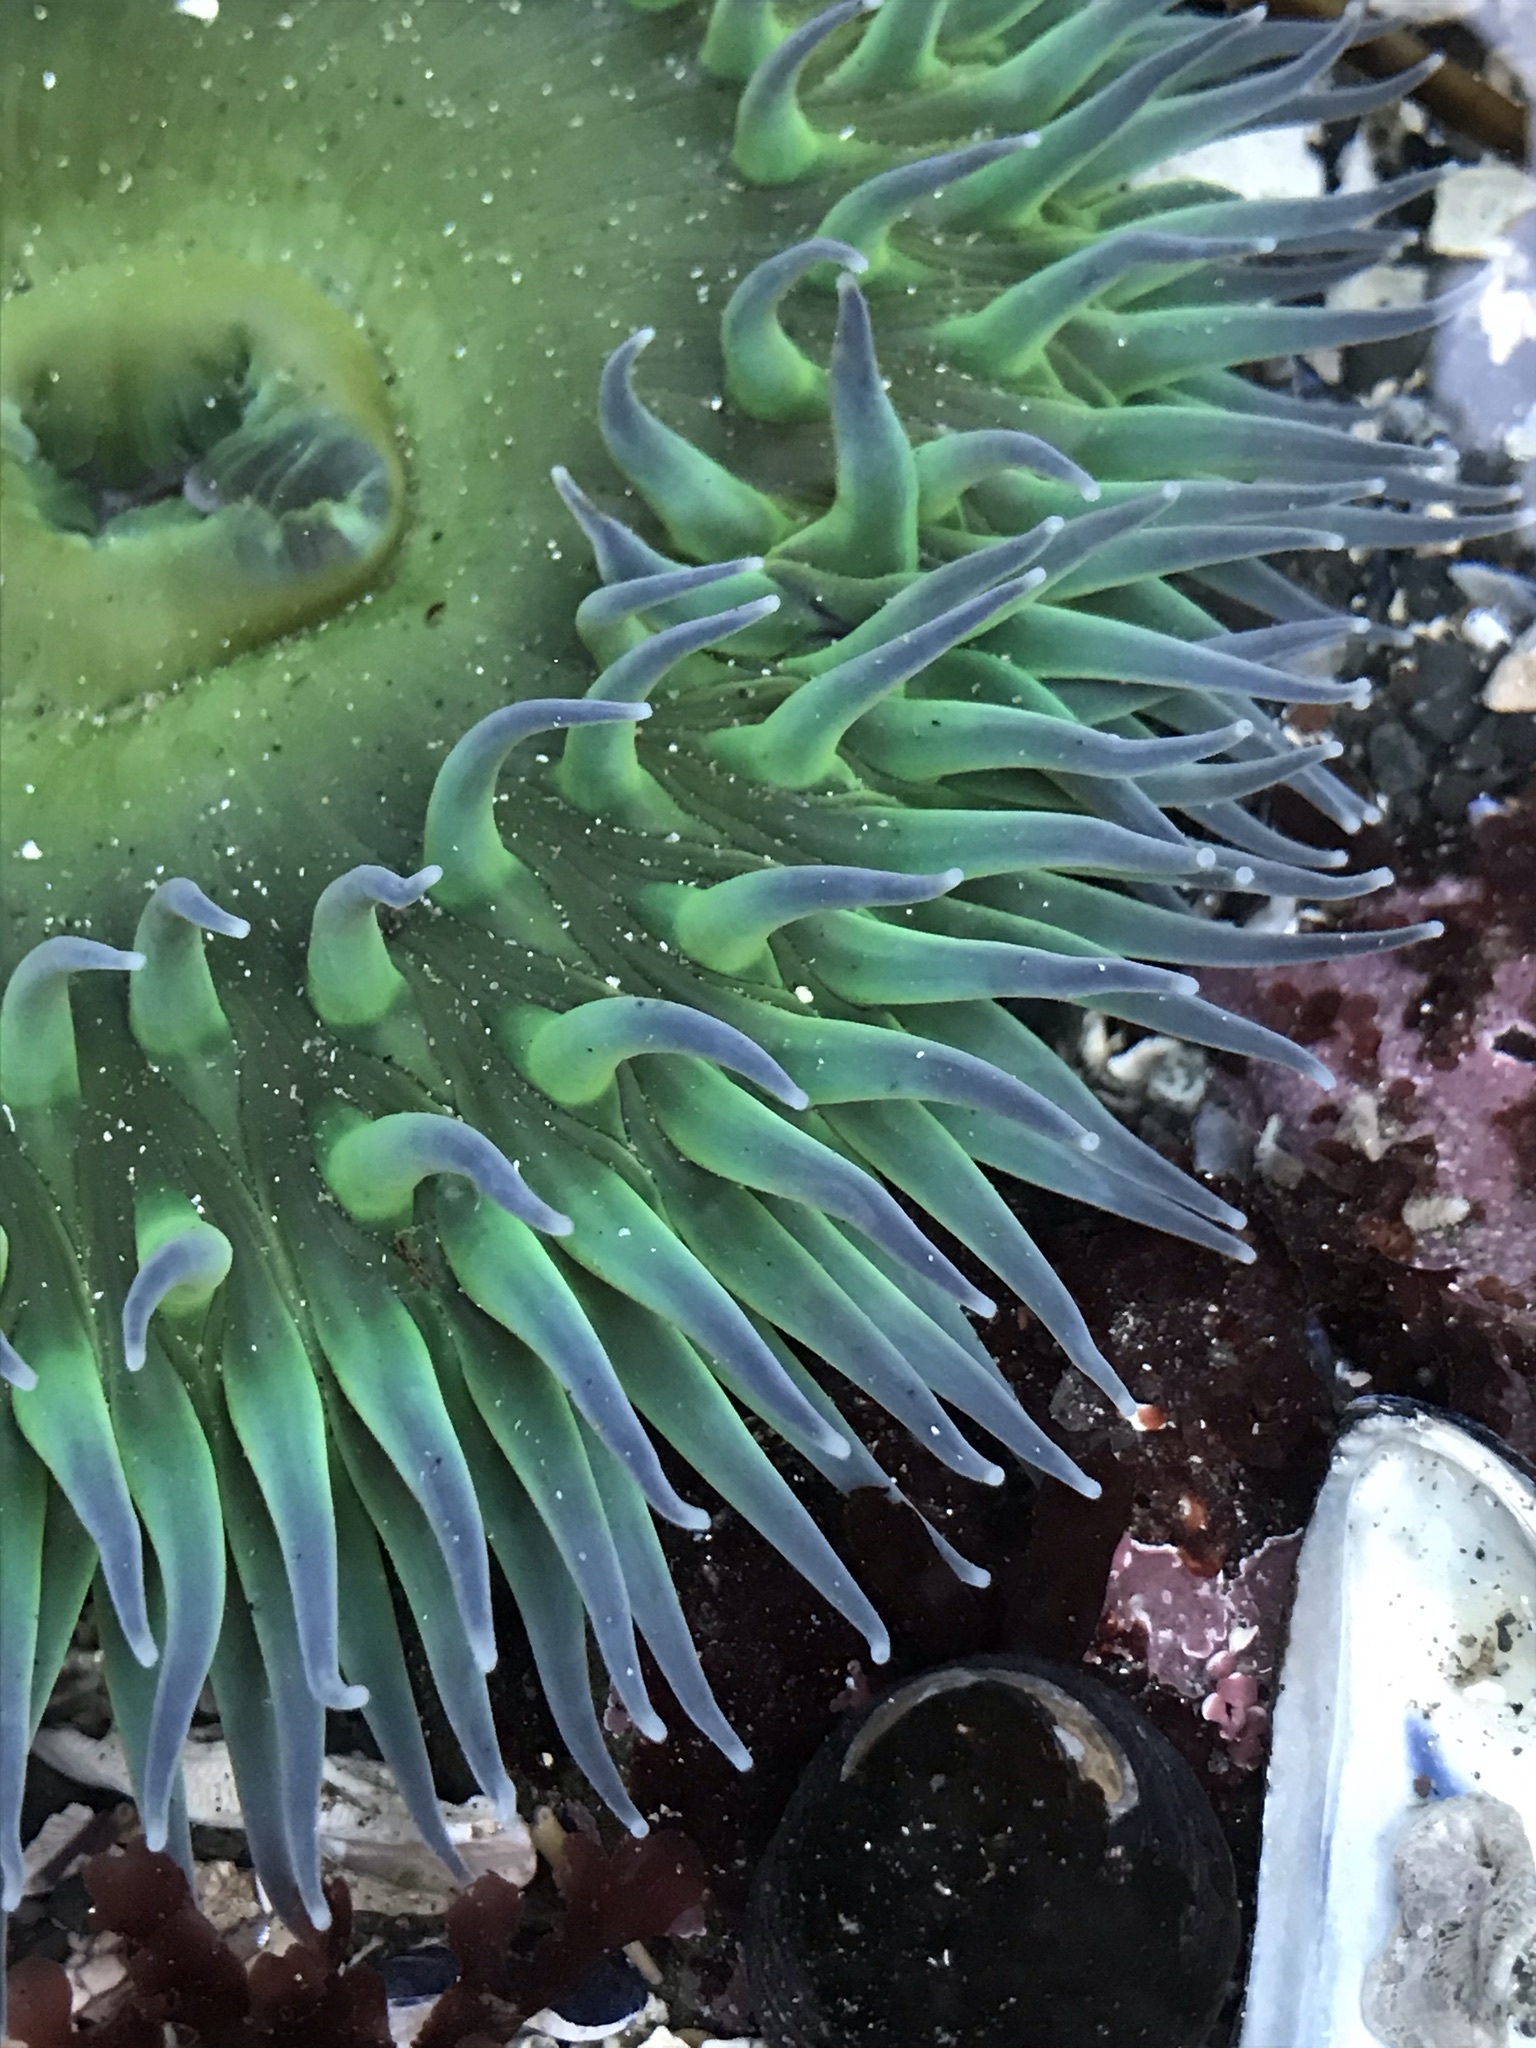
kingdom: Animalia
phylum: Cnidaria
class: Anthozoa
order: Actiniaria
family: Actiniidae
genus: Anthopleura
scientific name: Anthopleura xanthogrammica
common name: Giant green anemone
